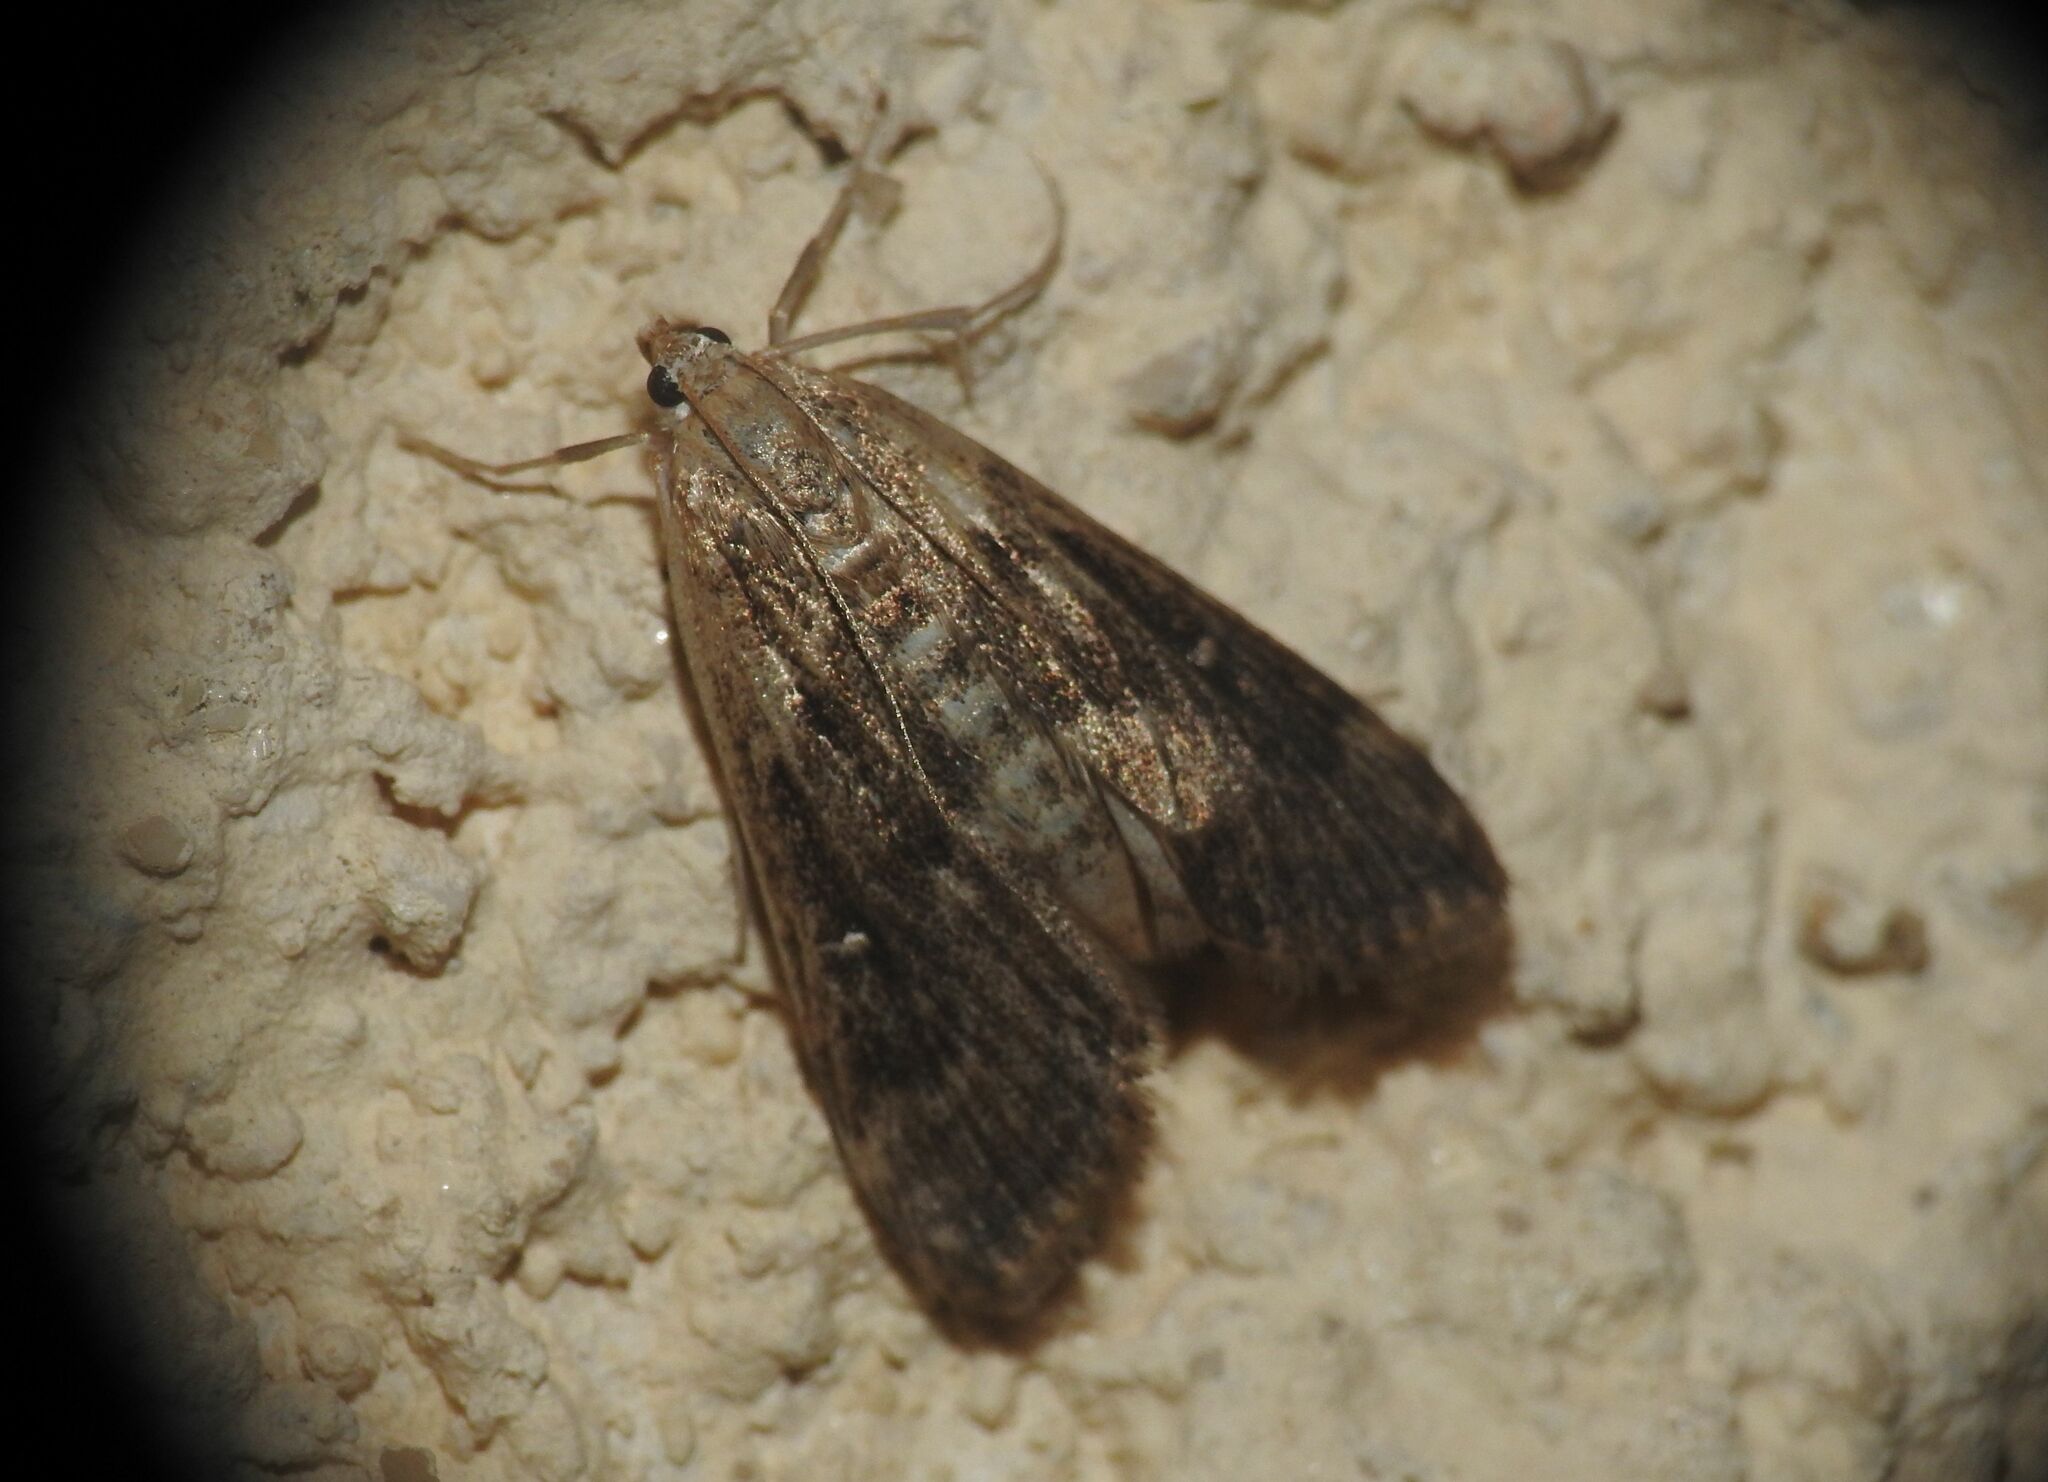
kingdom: Animalia
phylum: Arthropoda
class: Insecta
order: Lepidoptera
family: Crambidae
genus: Parapoynx
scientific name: Parapoynx stratiotata
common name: Ringed china-mark
